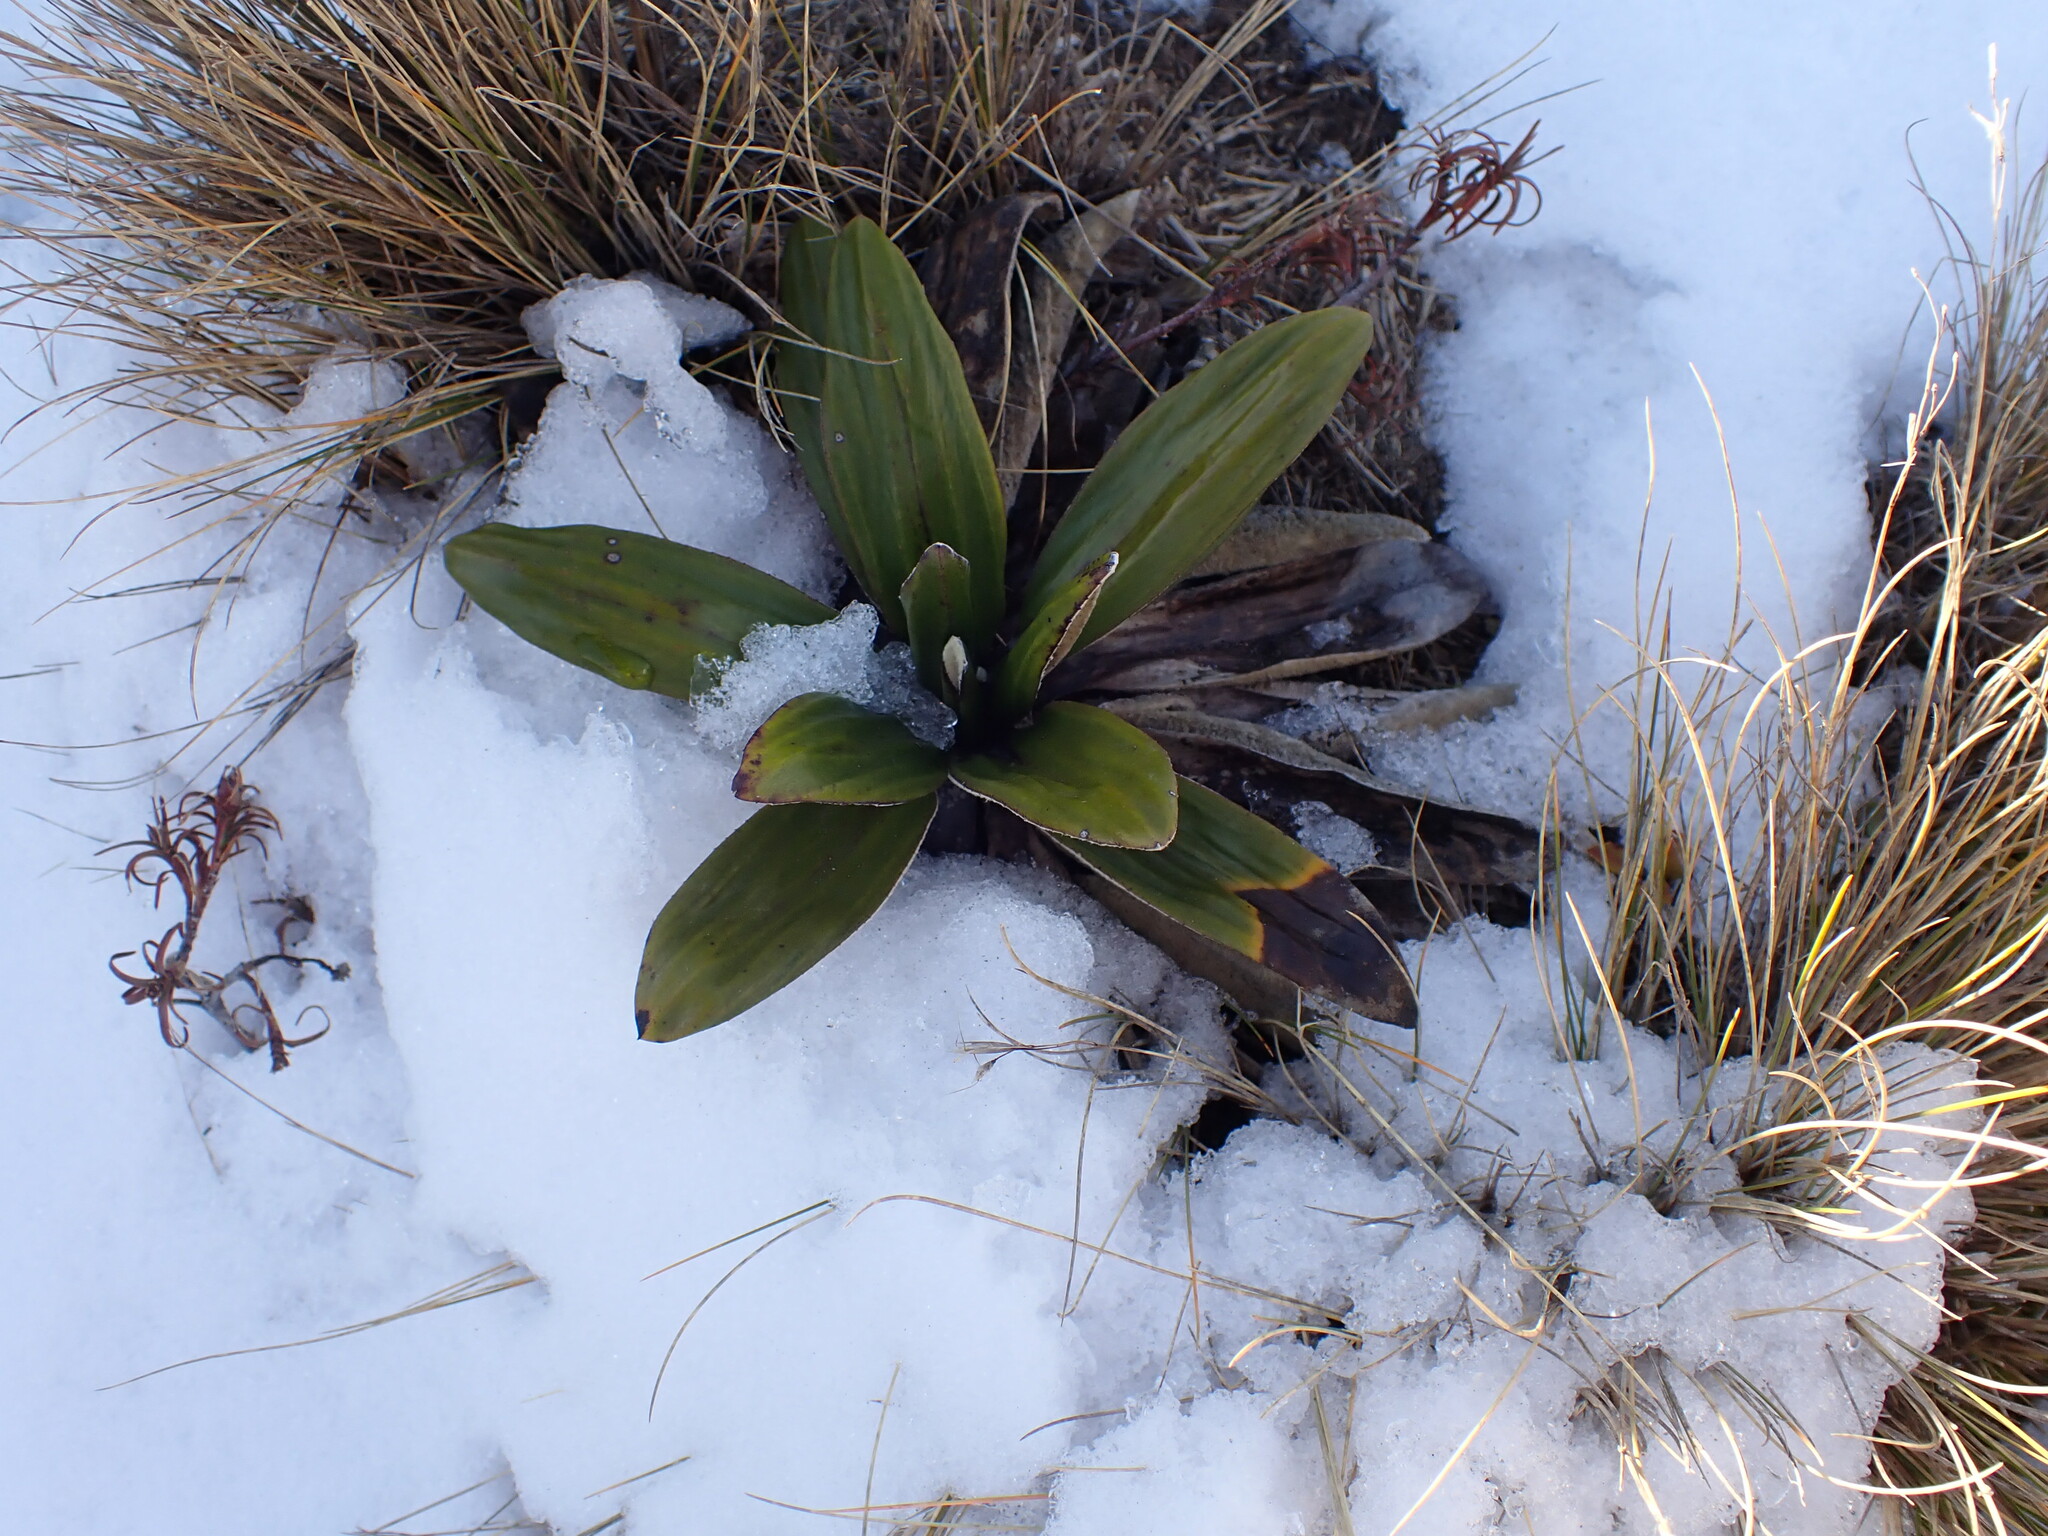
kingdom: Plantae
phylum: Tracheophyta
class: Magnoliopsida
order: Asterales
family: Asteraceae
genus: Celmisia
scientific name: Celmisia spectabilis
